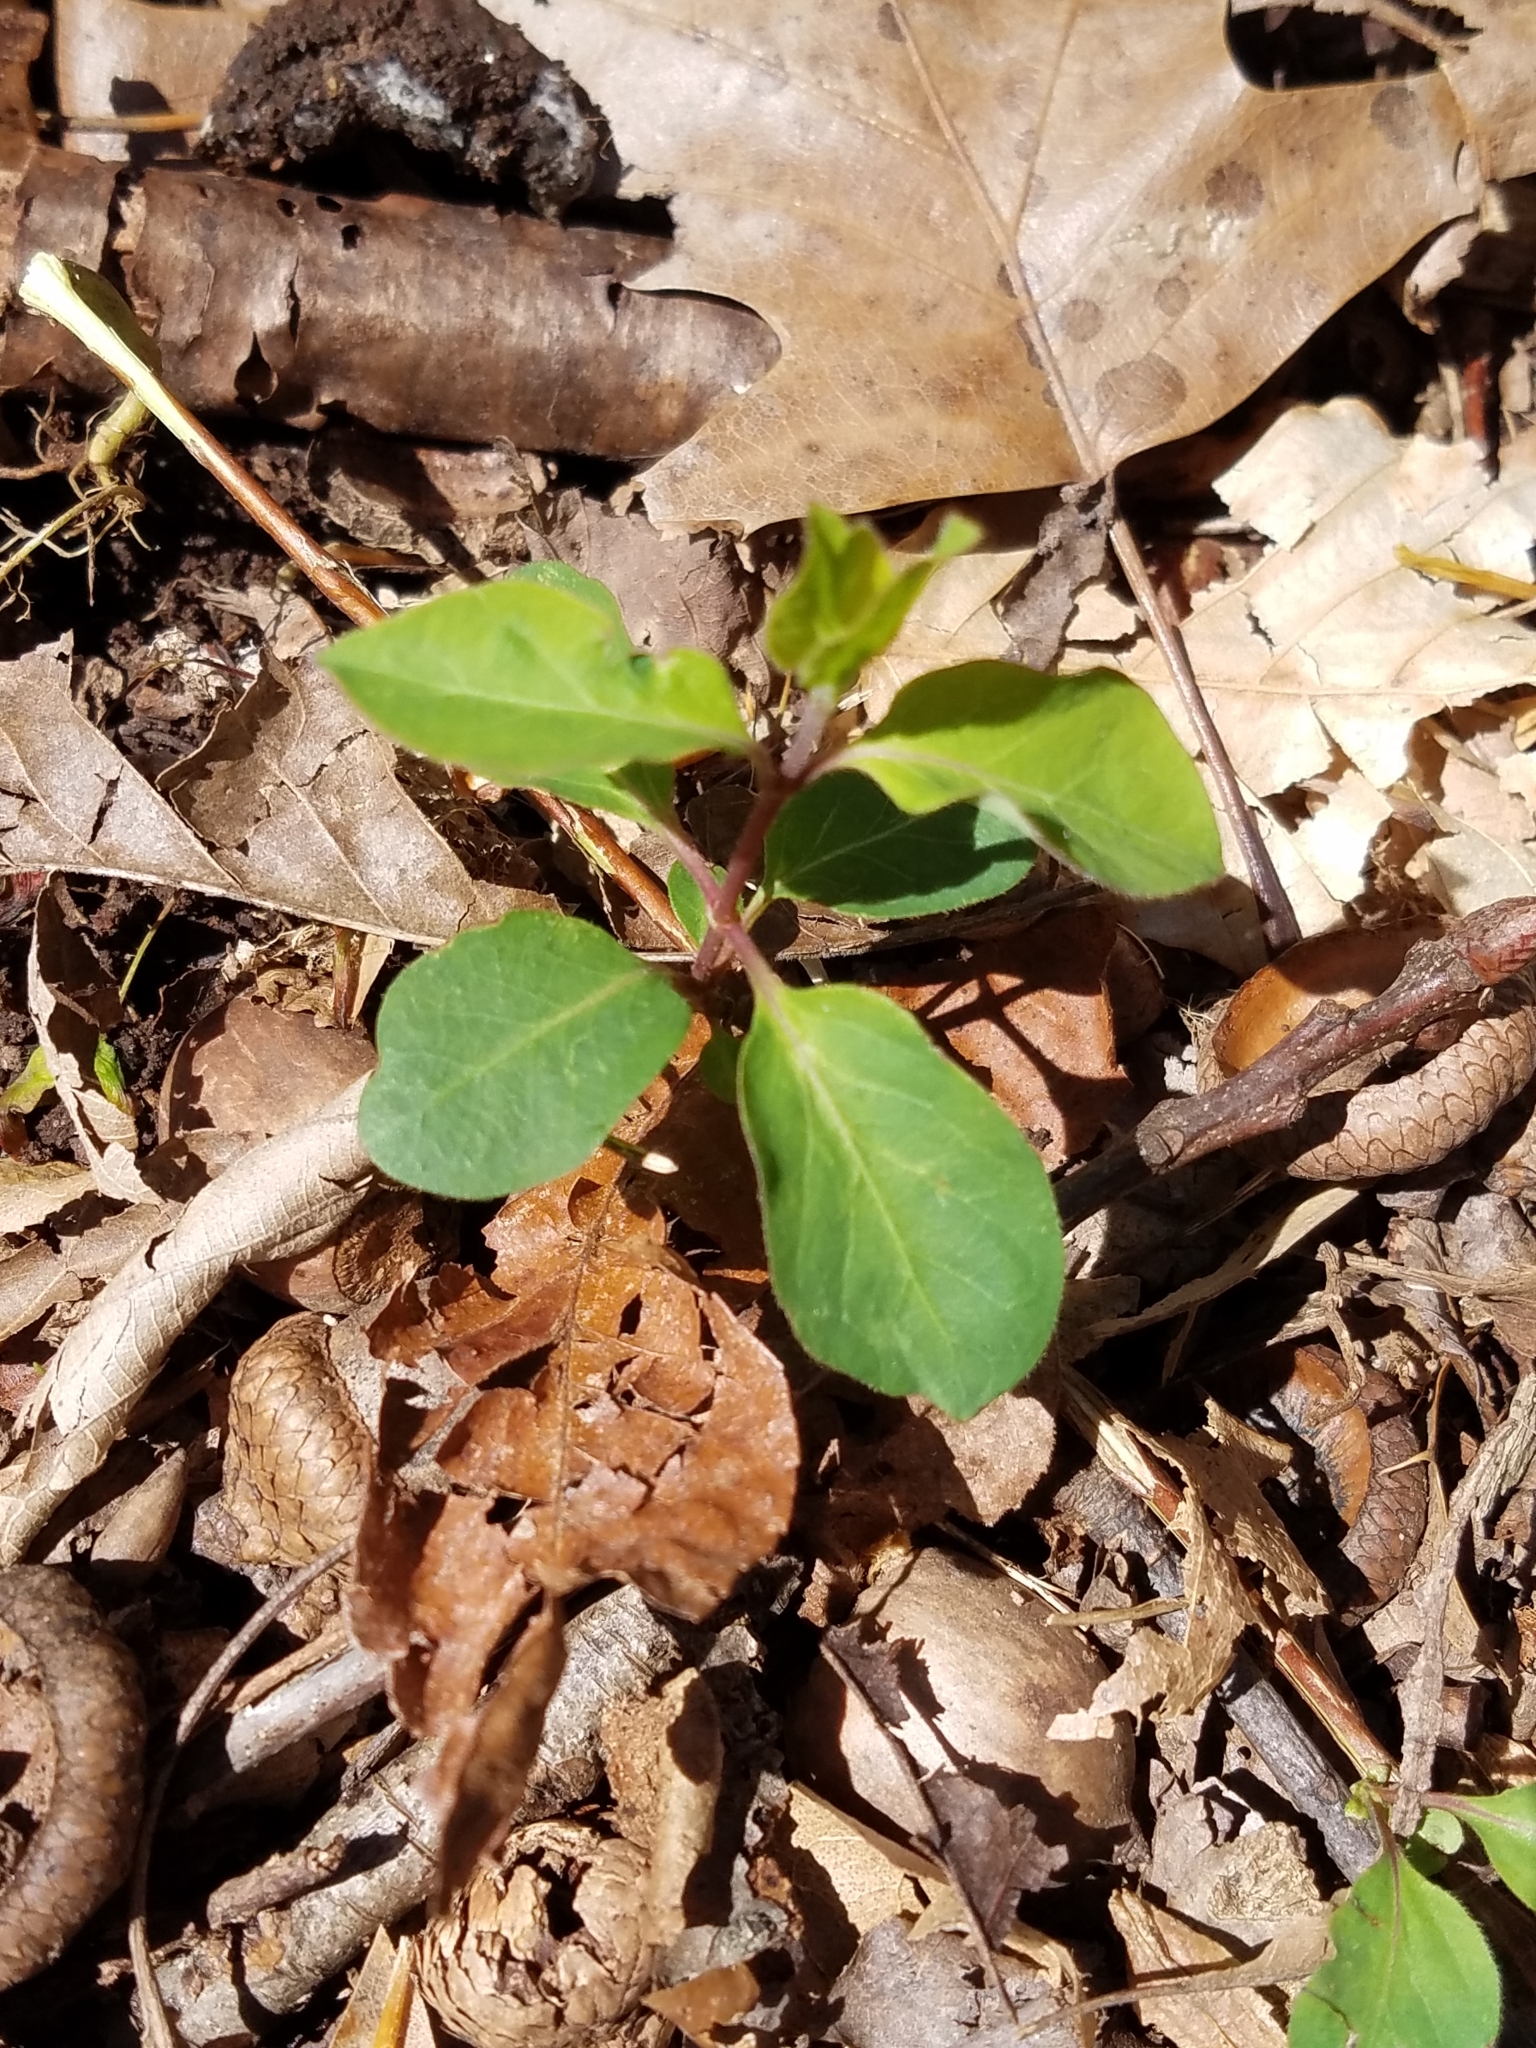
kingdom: Plantae
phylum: Tracheophyta
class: Magnoliopsida
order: Dipsacales
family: Caprifoliaceae
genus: Lonicera
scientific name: Lonicera japonica
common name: Japanese honeysuckle
